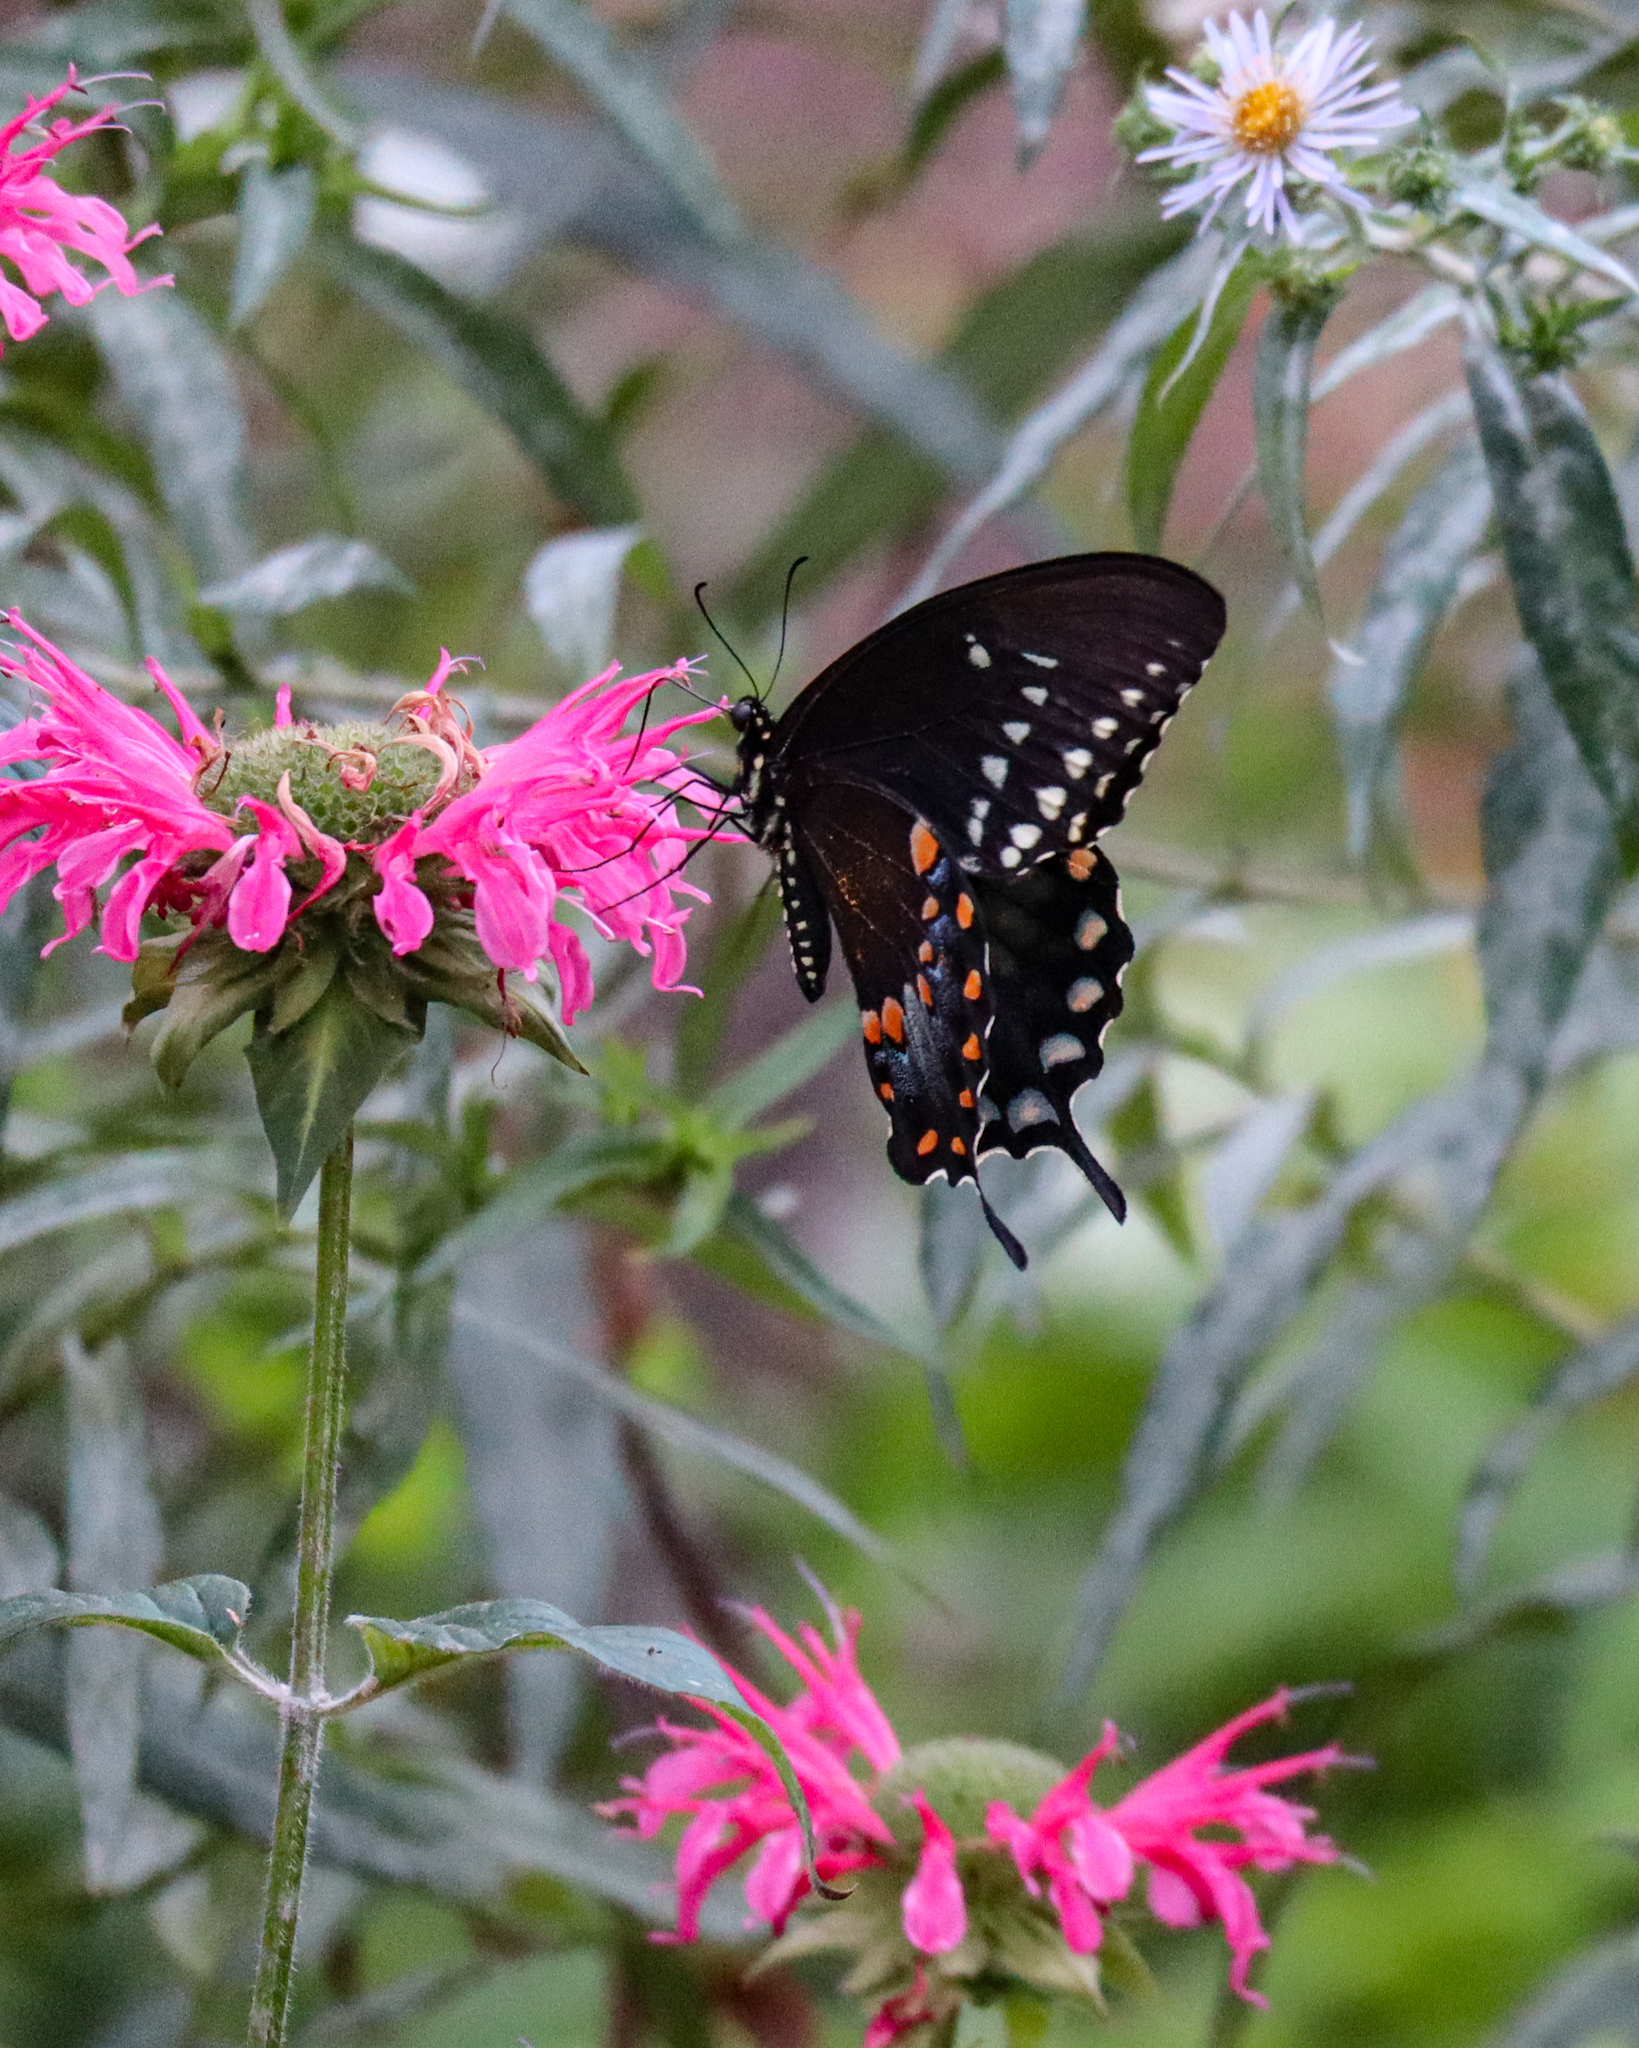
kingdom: Animalia
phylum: Arthropoda
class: Insecta
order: Lepidoptera
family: Papilionidae
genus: Papilio
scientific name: Papilio troilus
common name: Spicebush swallowtail
